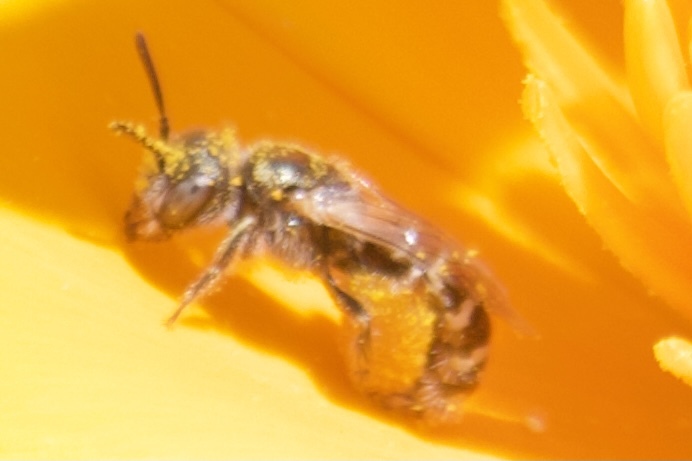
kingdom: Animalia
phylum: Arthropoda
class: Insecta
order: Hymenoptera
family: Andrenidae
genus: Perdita
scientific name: Perdita interrupta
